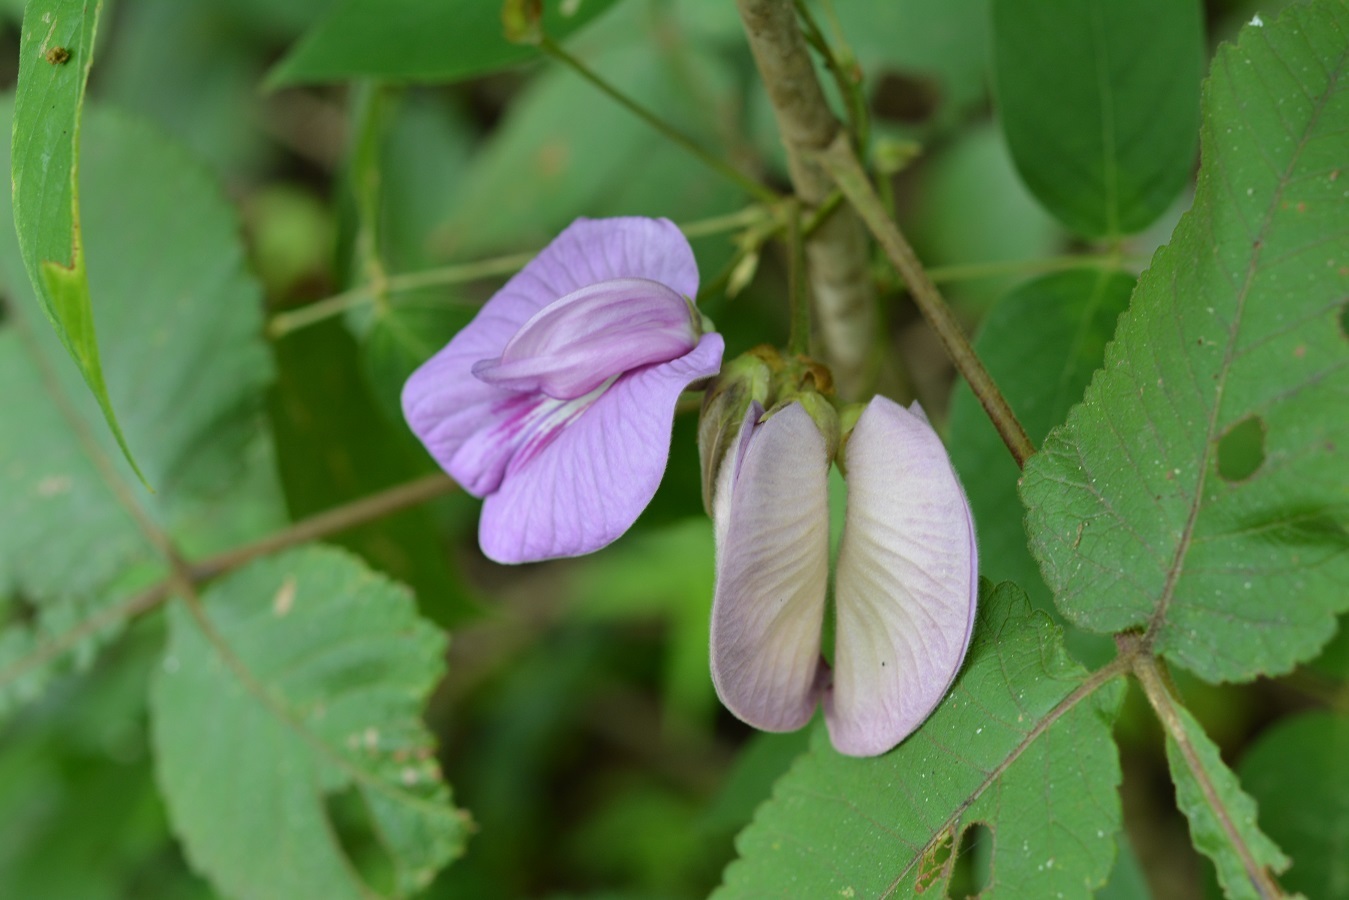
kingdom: Plantae
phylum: Tracheophyta
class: Magnoliopsida
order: Fabales
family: Fabaceae
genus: Centrosema
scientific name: Centrosema virginianum
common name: Butterfly-pea
